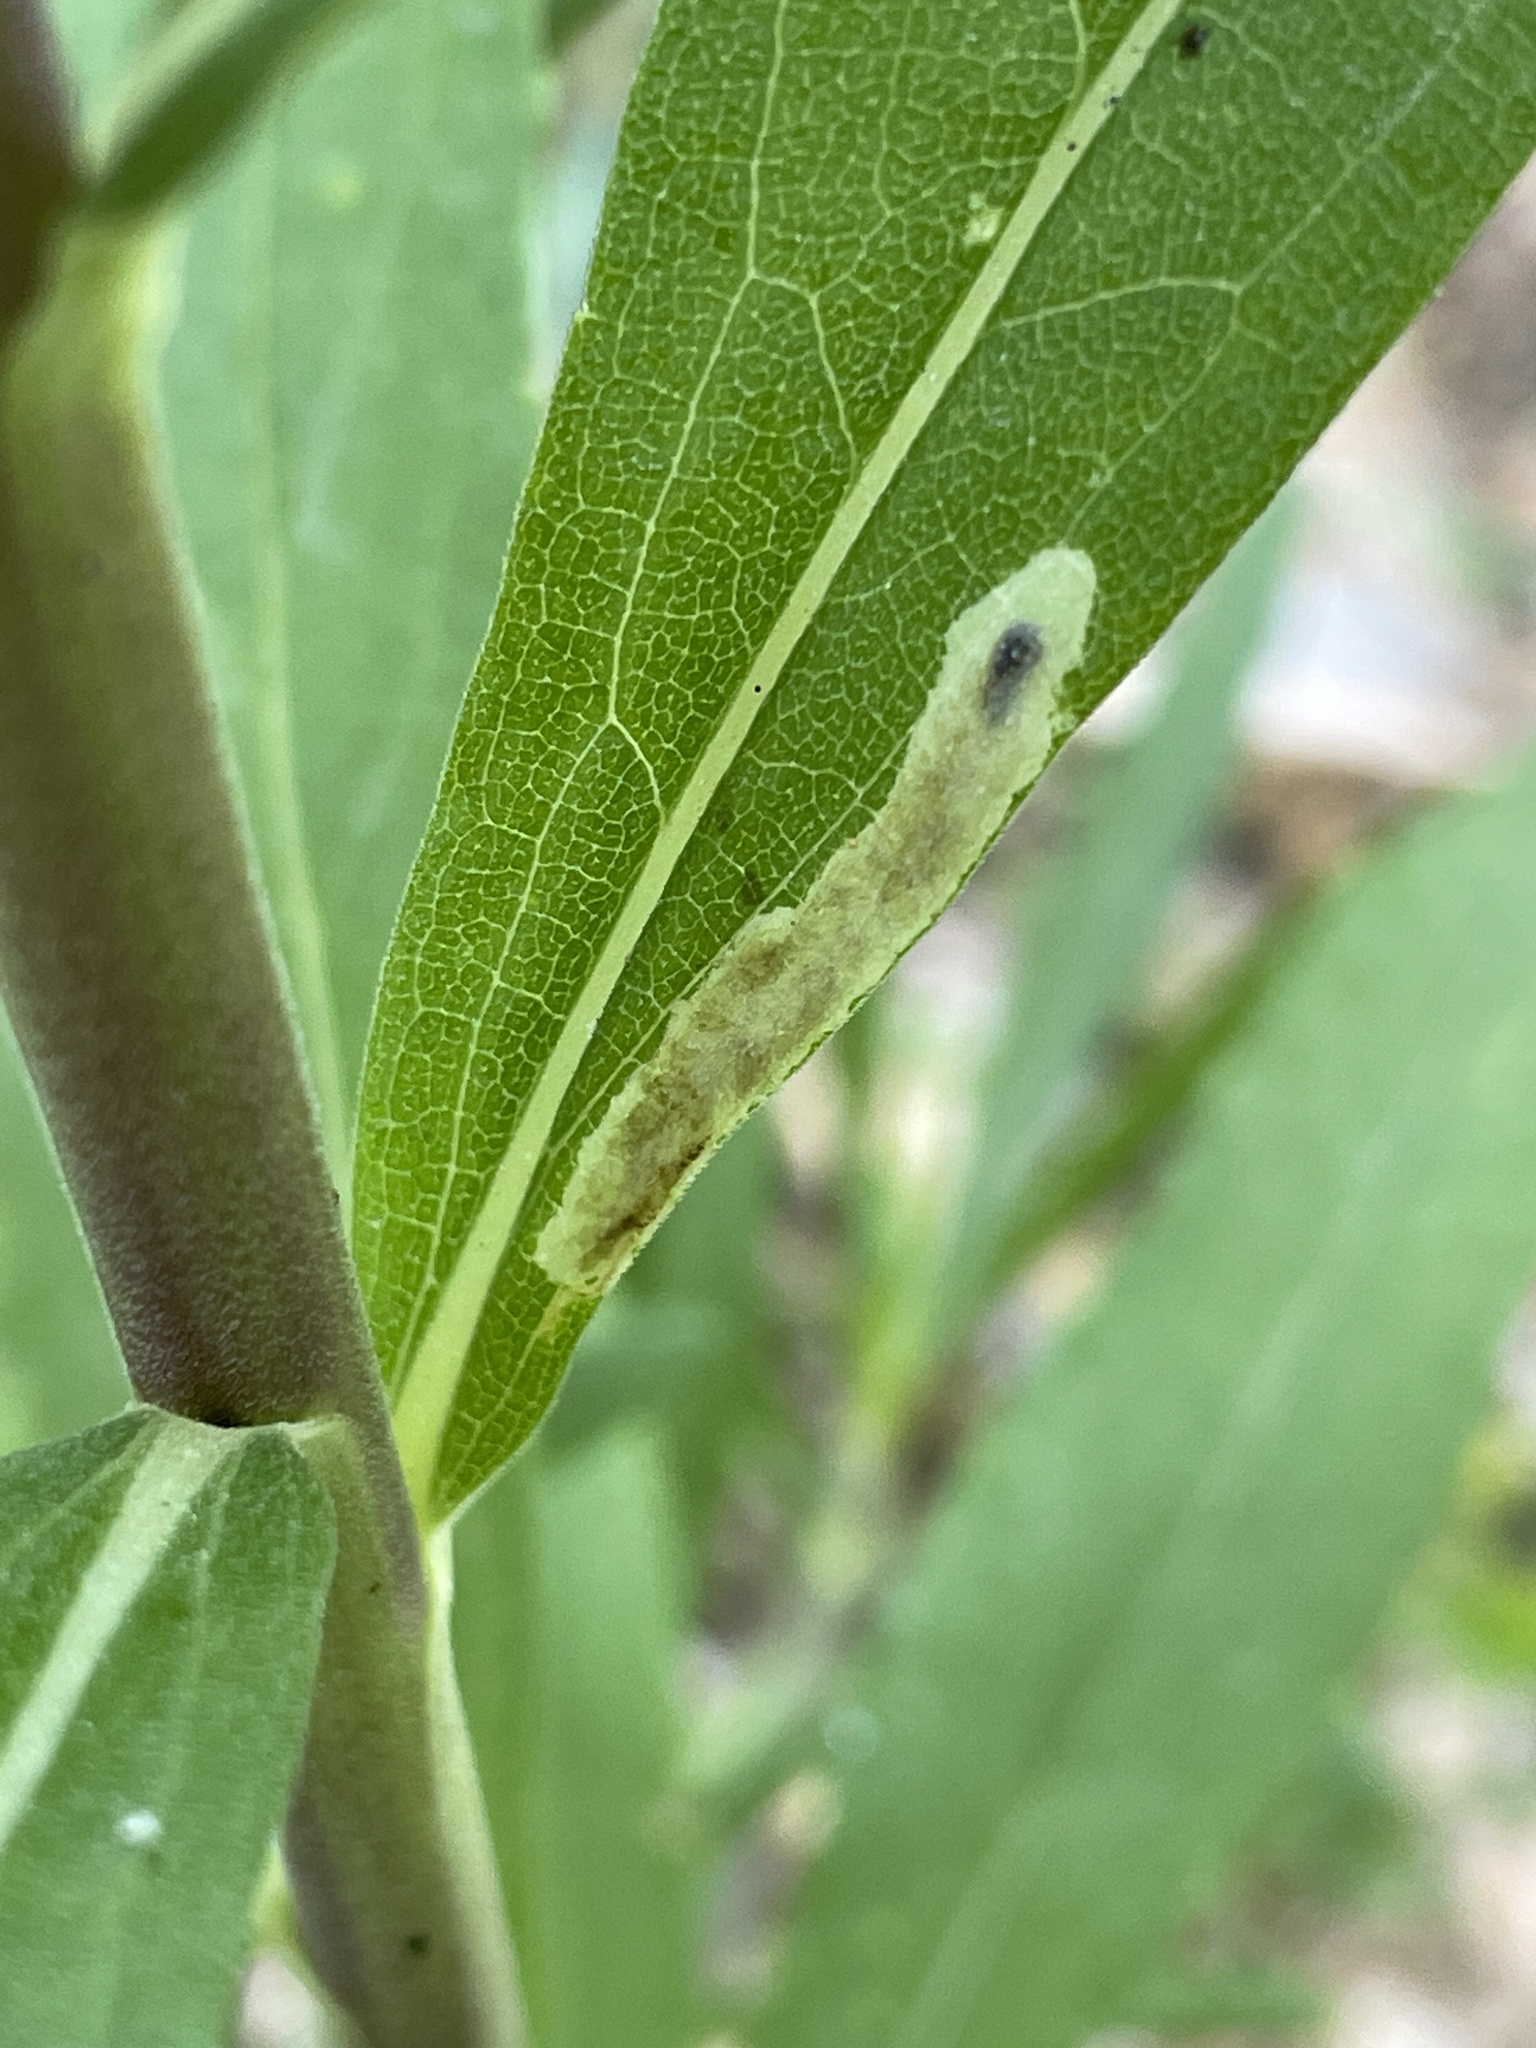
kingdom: Animalia
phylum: Arthropoda
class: Insecta
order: Diptera
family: Agromyzidae
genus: Calycomyza
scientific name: Calycomyza solidaginis
